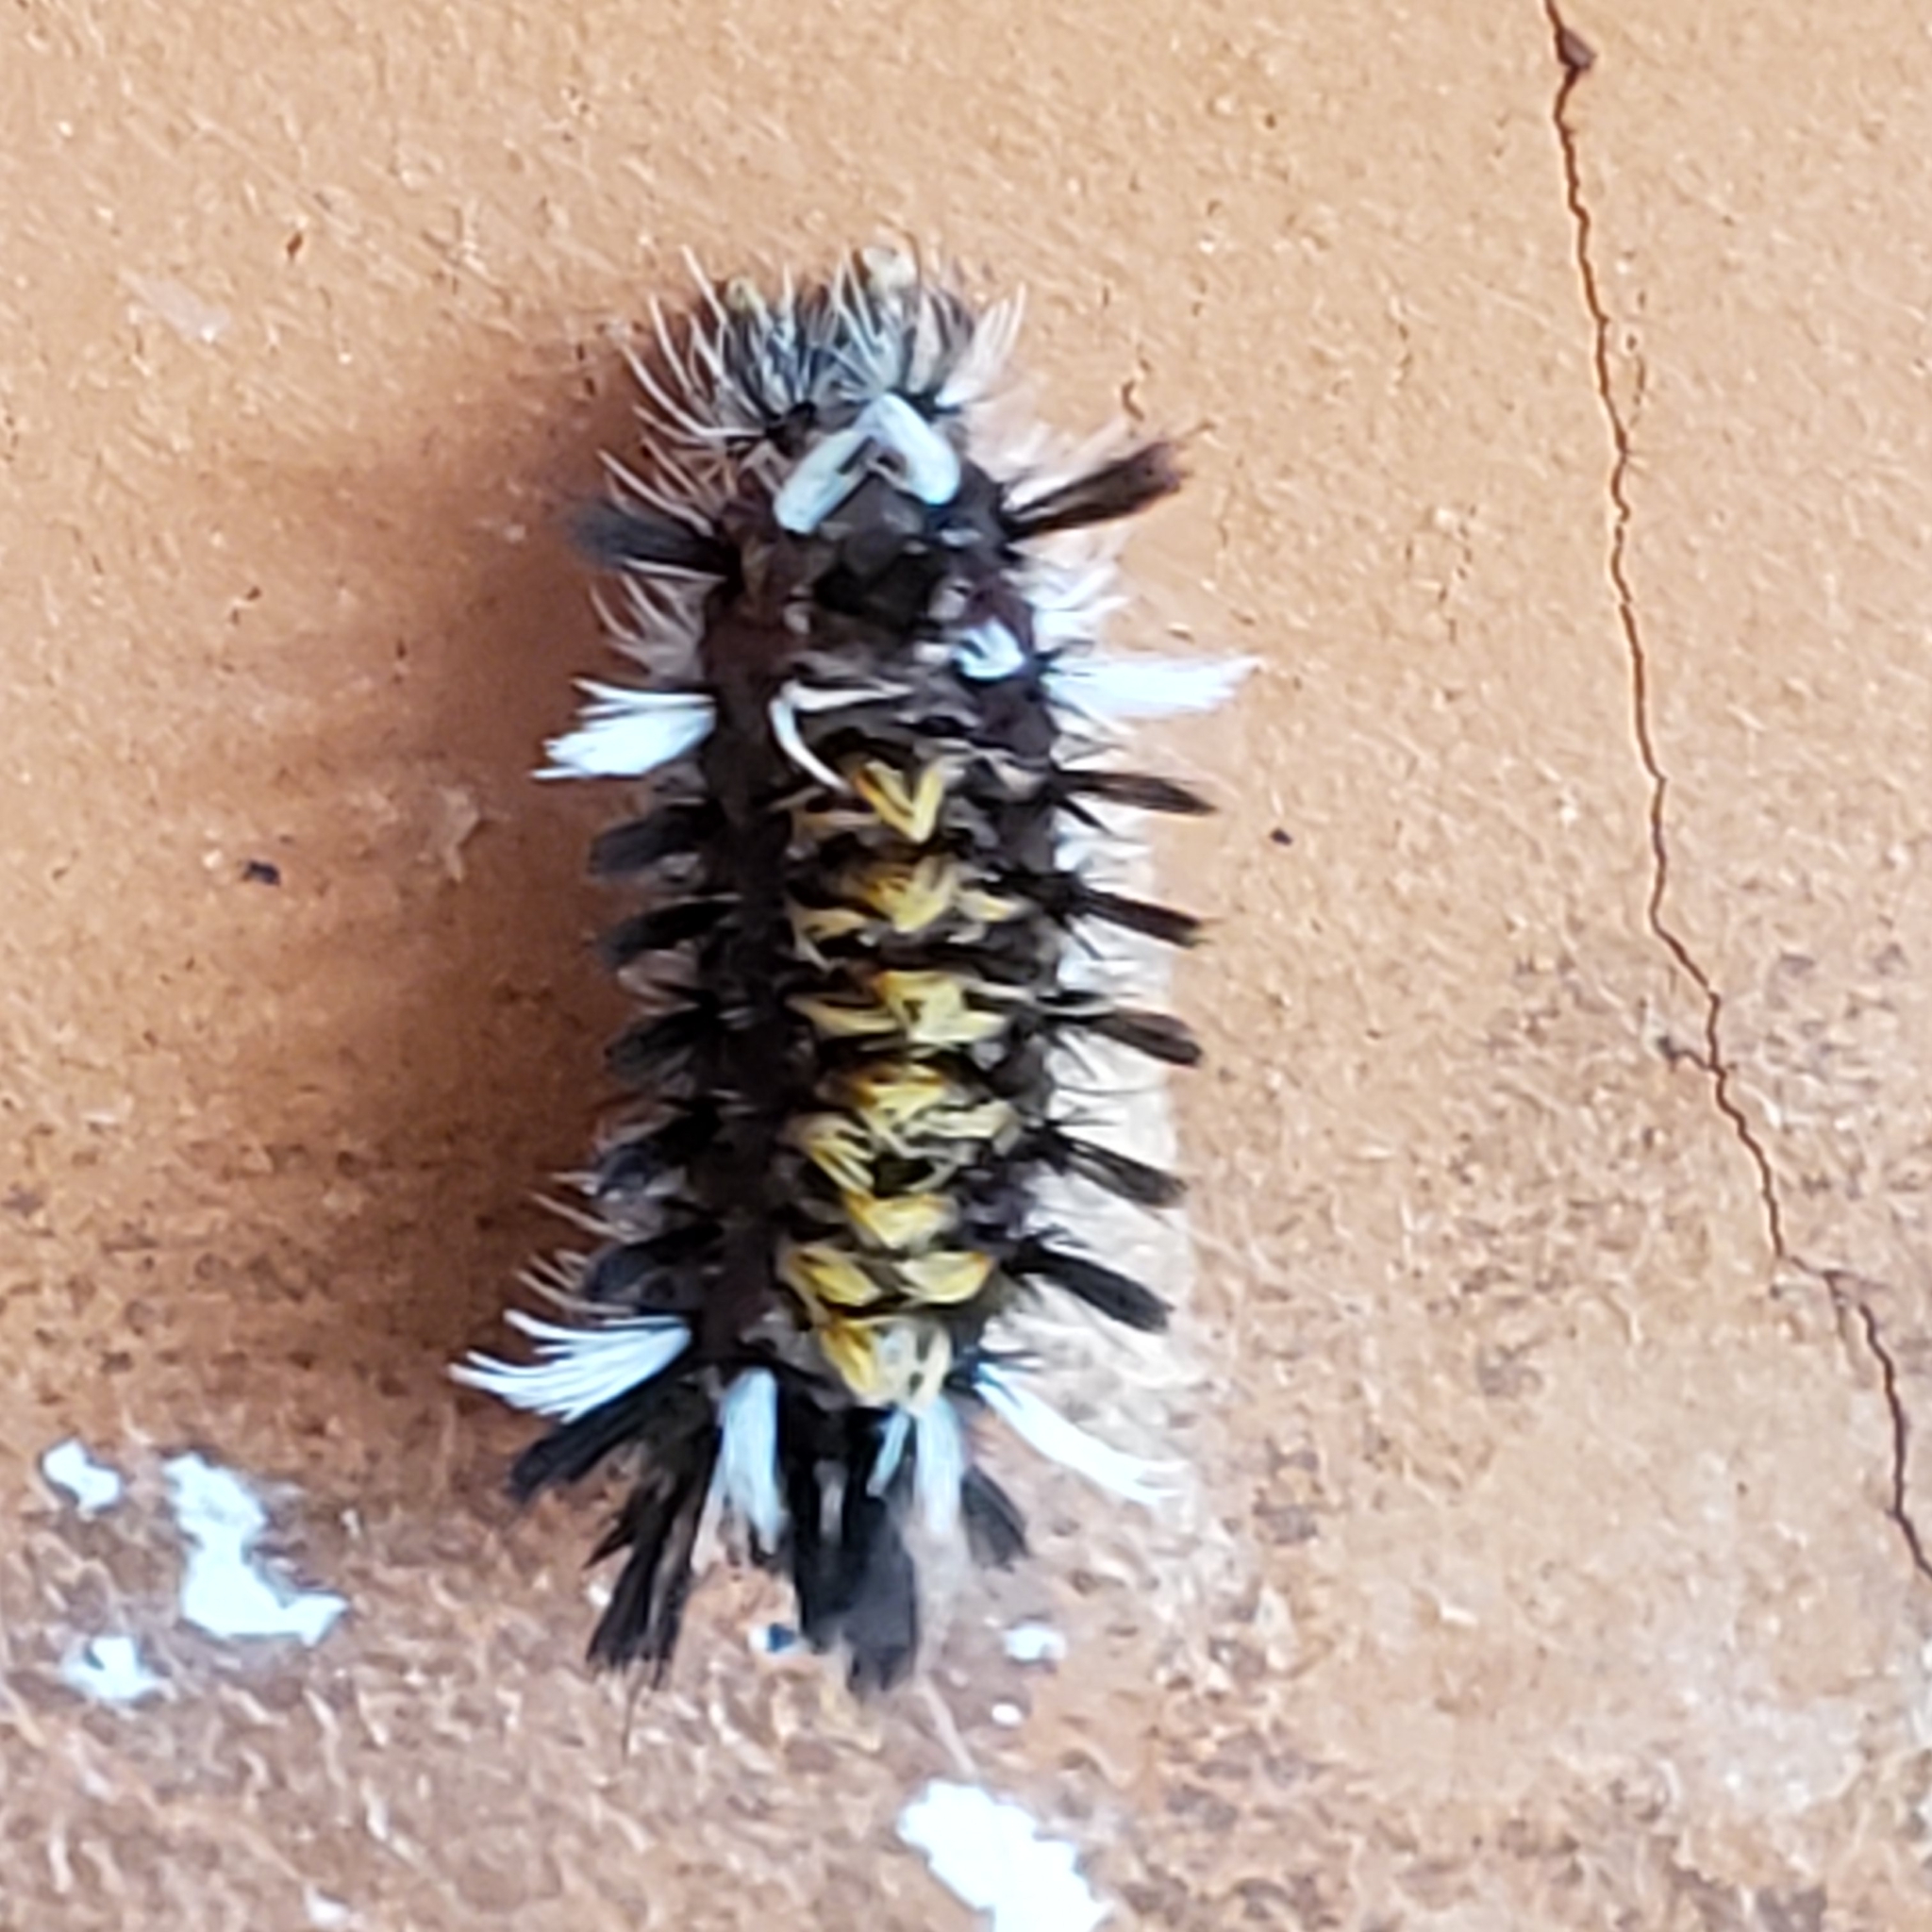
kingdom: Animalia
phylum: Arthropoda
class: Insecta
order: Lepidoptera
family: Erebidae
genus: Euchaetes
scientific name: Euchaetes egle
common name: Milkweed tussock moth
